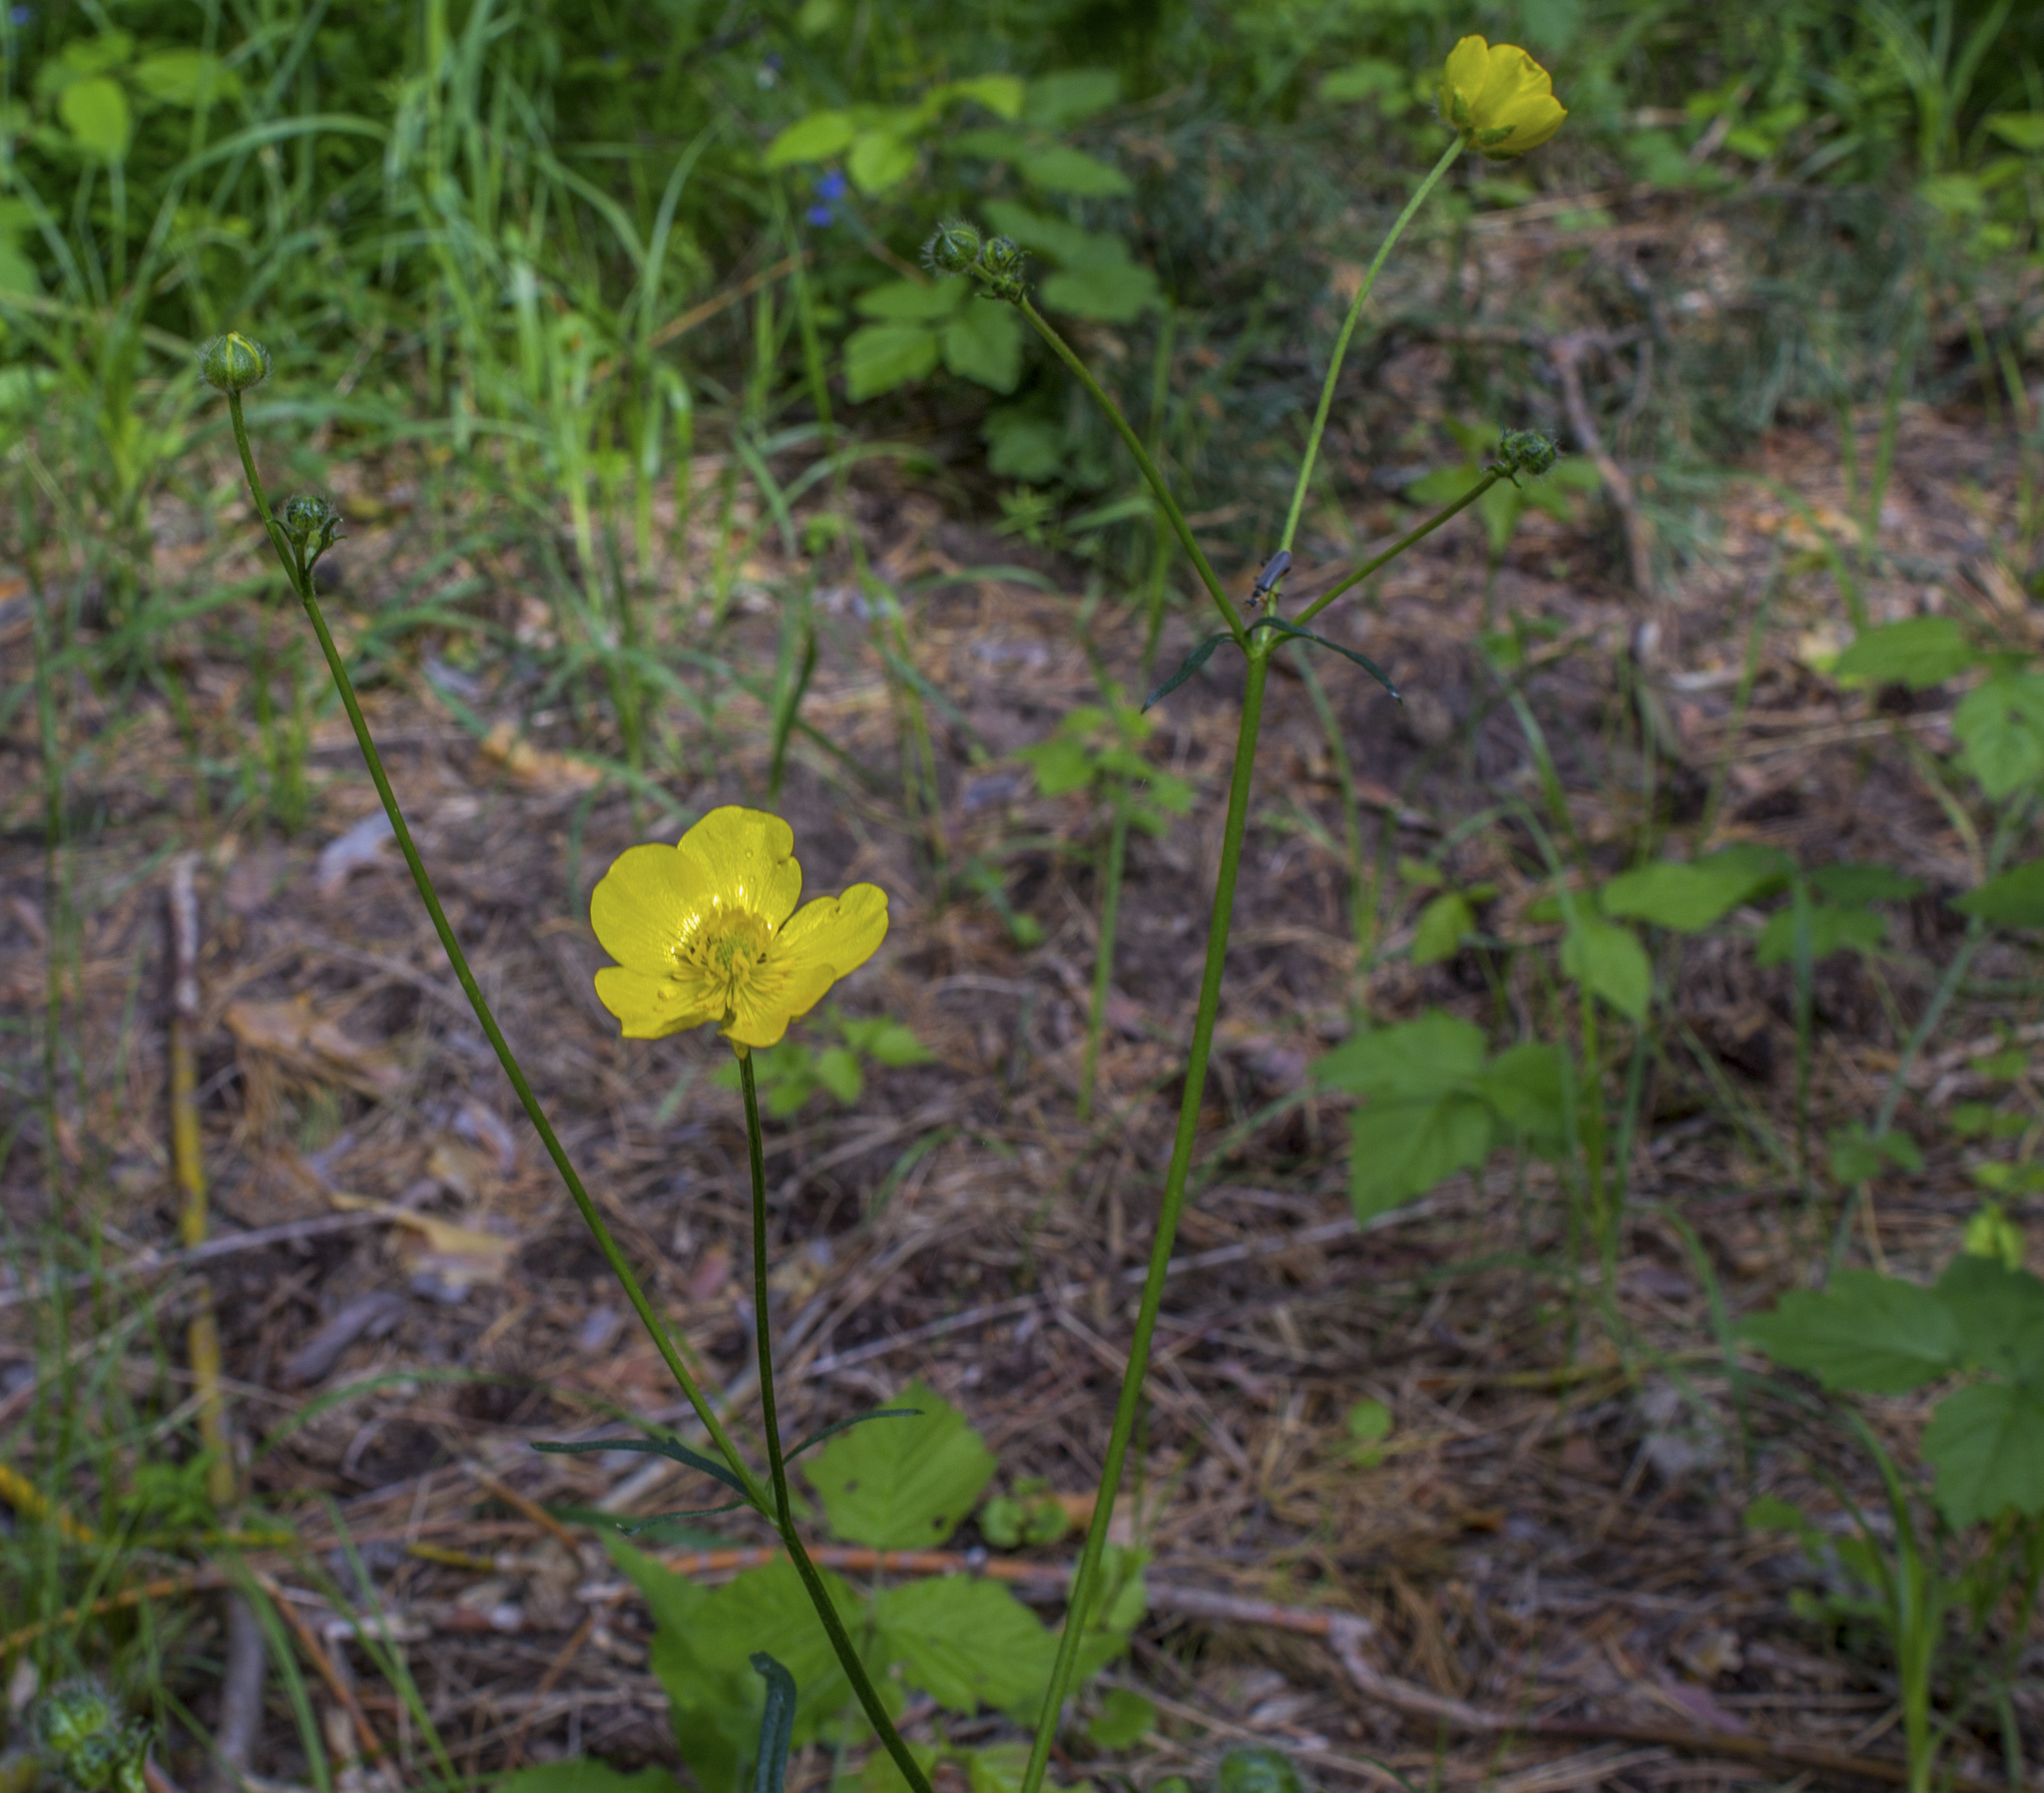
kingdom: Plantae
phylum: Tracheophyta
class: Magnoliopsida
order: Ranunculales
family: Ranunculaceae
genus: Ranunculus
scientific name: Ranunculus polyanthemos
